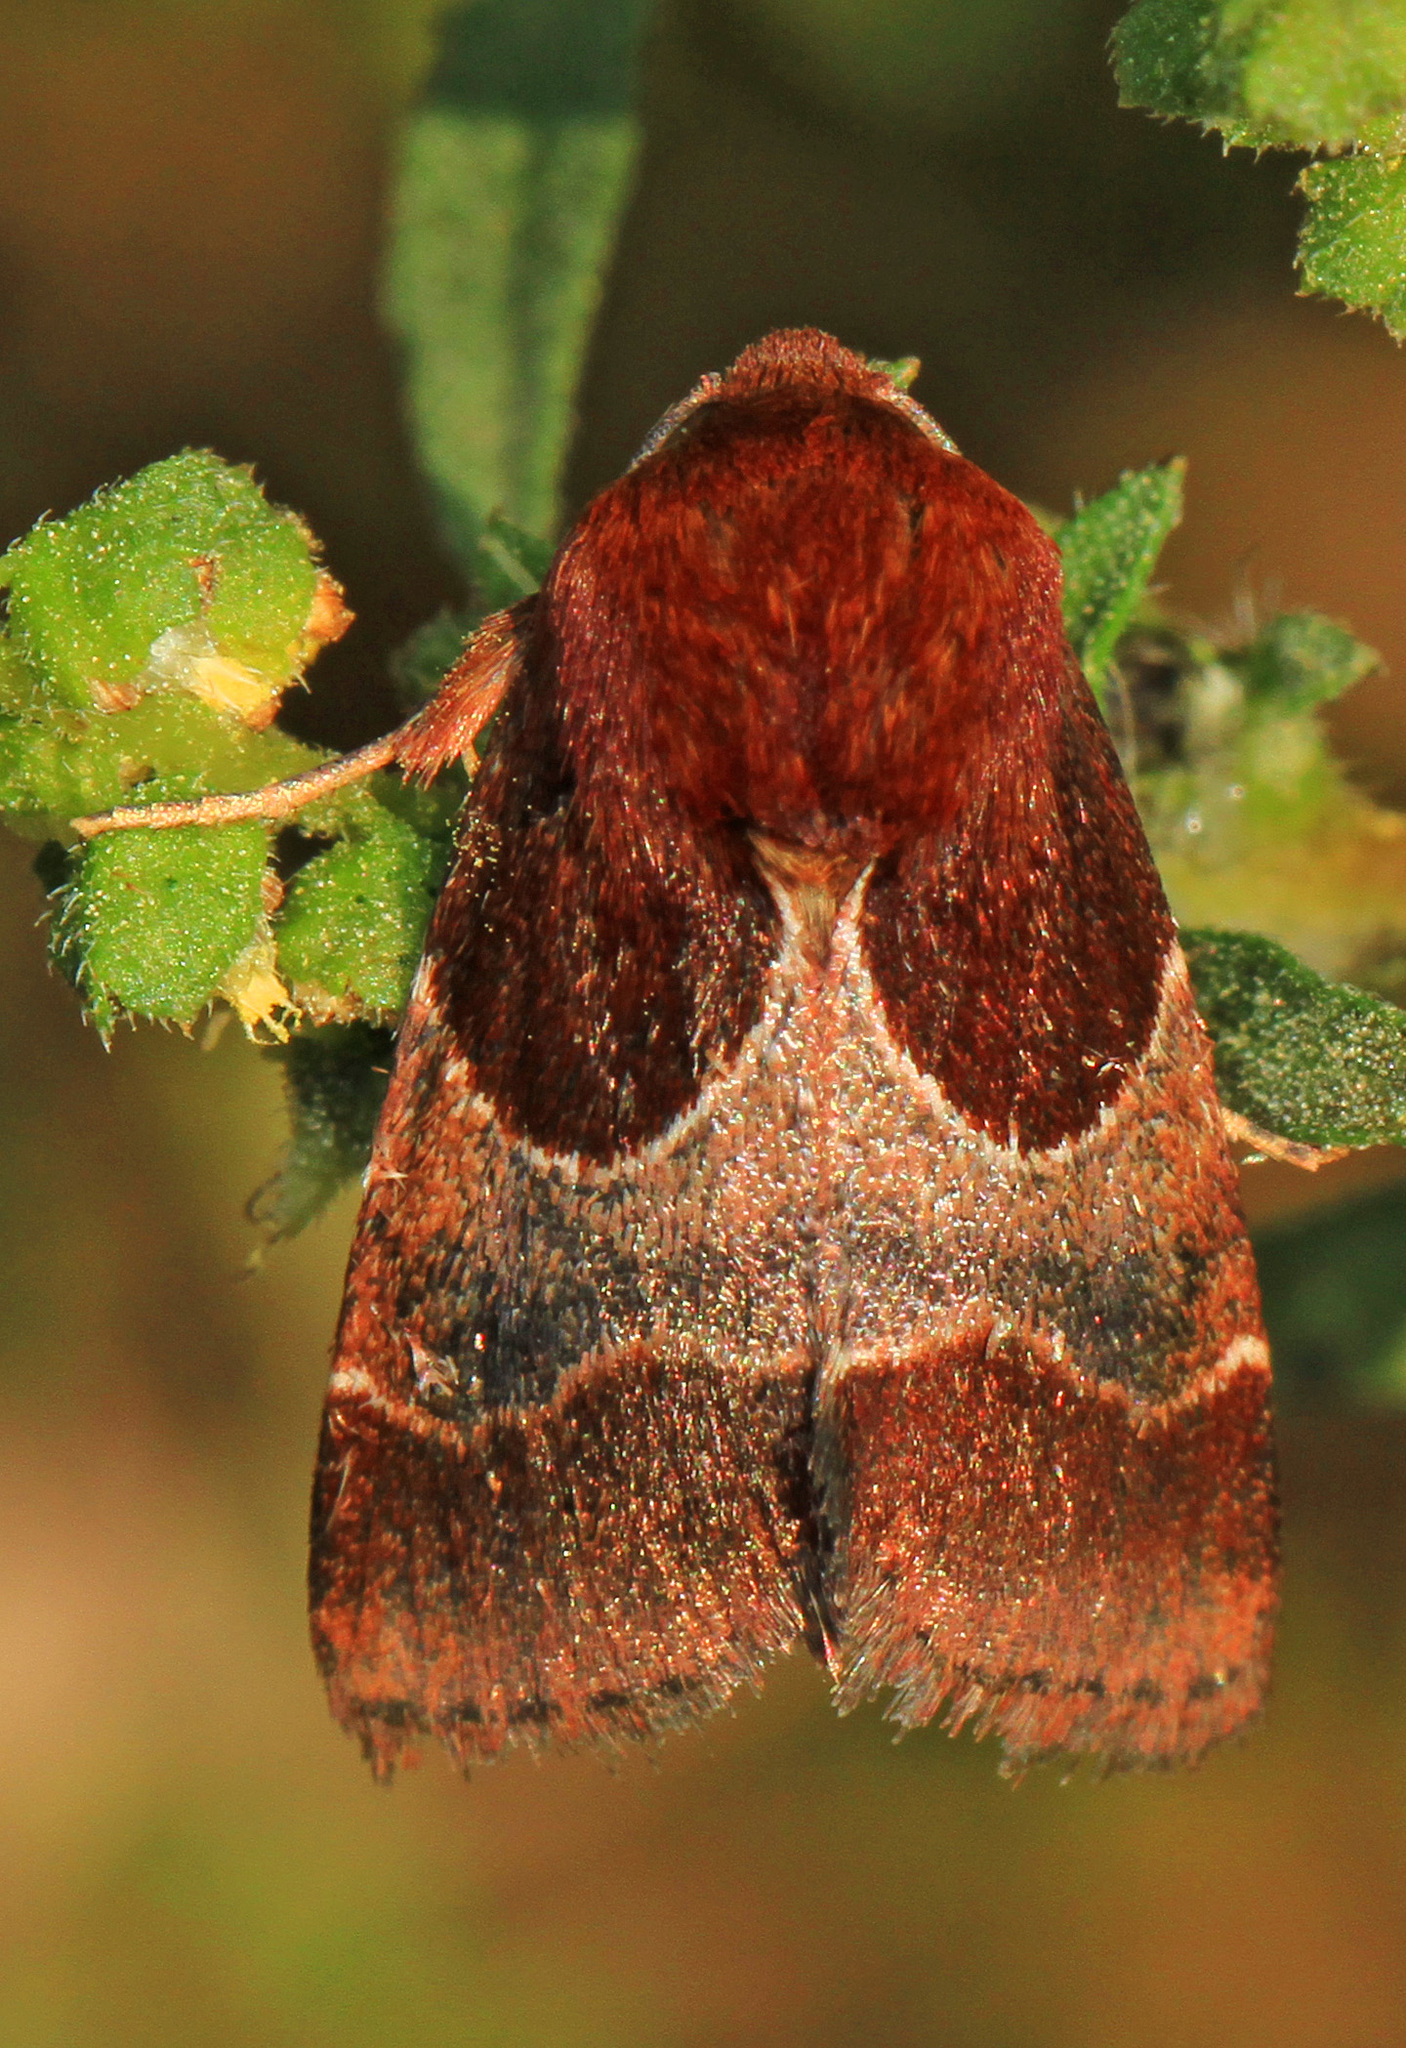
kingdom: Animalia
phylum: Arthropoda
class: Insecta
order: Lepidoptera
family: Noctuidae
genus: Schinia
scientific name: Schinia arcigera
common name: Arcigera flower moth
